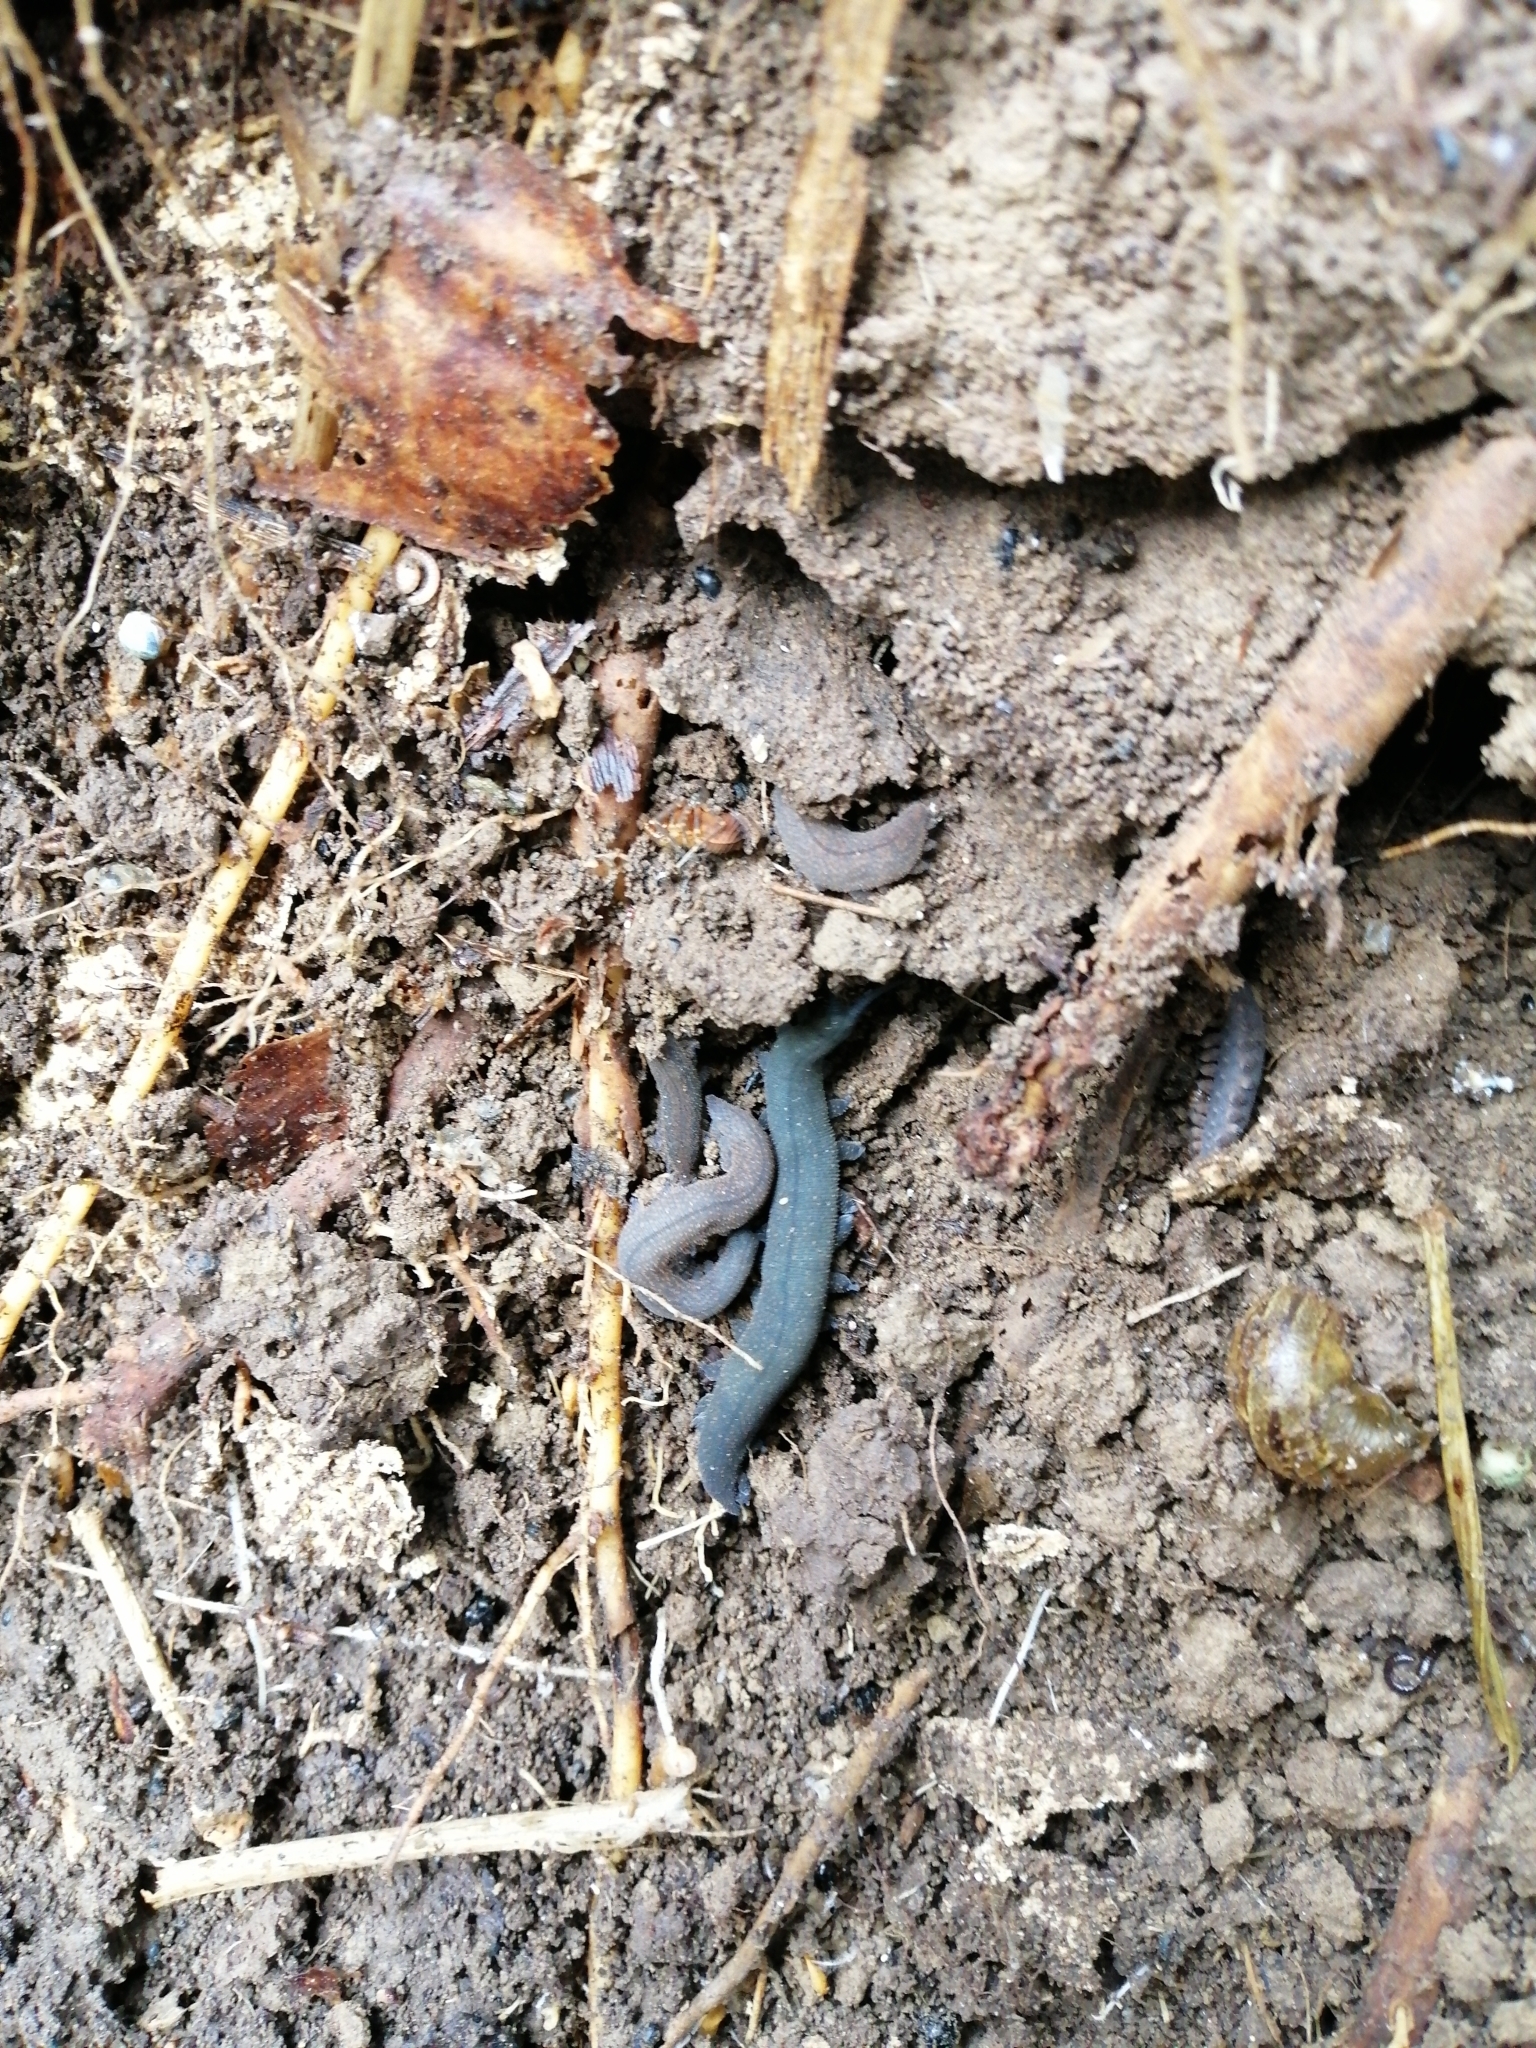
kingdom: Animalia
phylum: Onychophora
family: Peripatopsidae
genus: Peripatoides
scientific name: Peripatoides novaezealandiae
